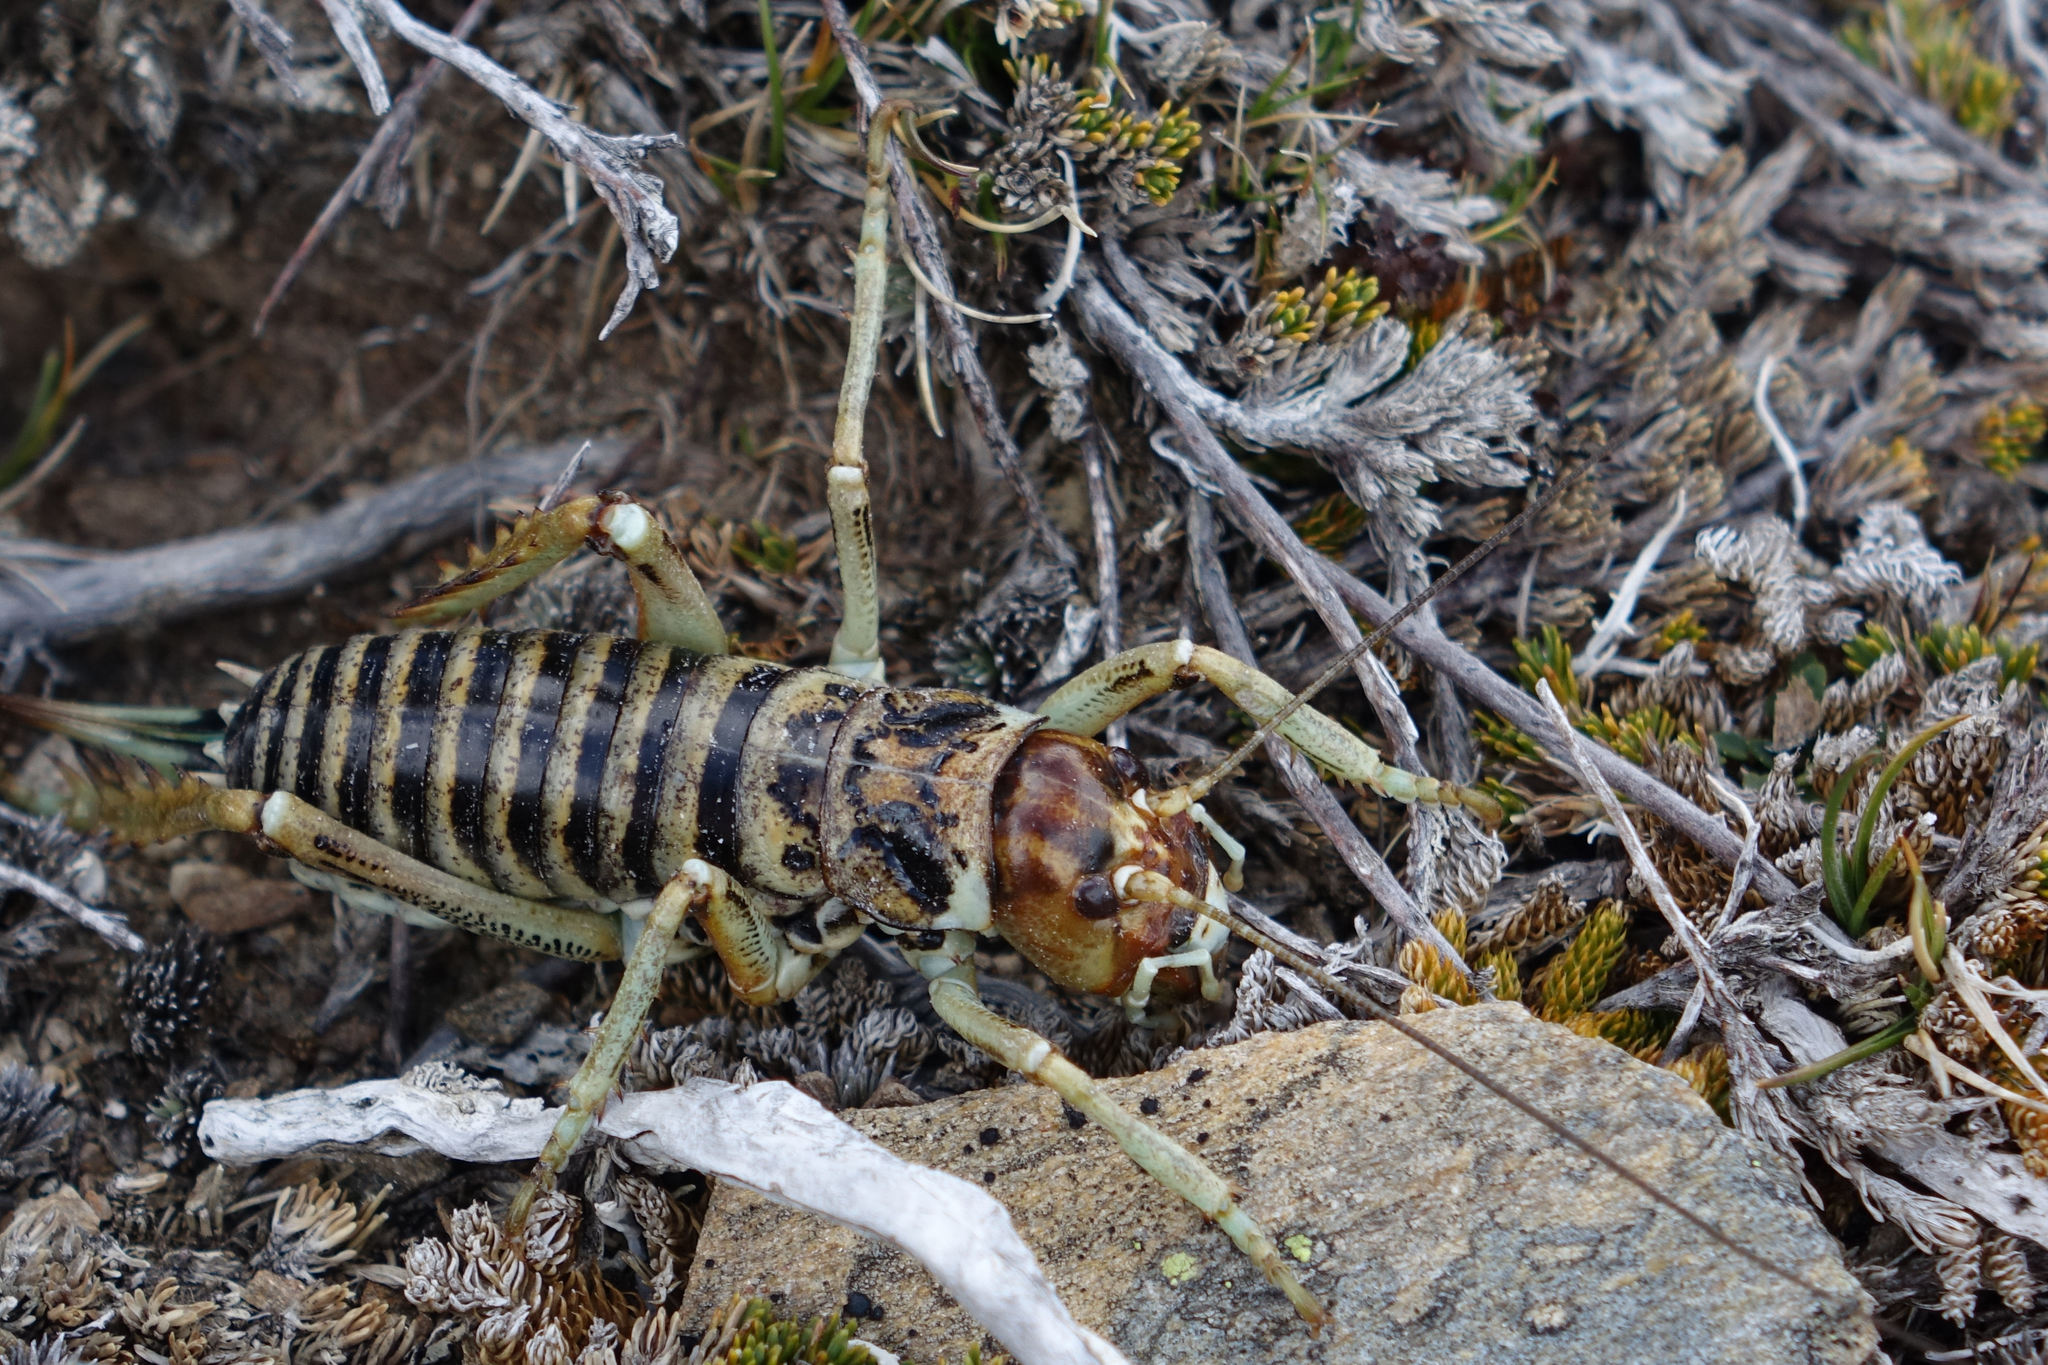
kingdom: Animalia
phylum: Arthropoda
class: Insecta
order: Orthoptera
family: Anostostomatidae
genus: Hemideina
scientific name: Hemideina maori
